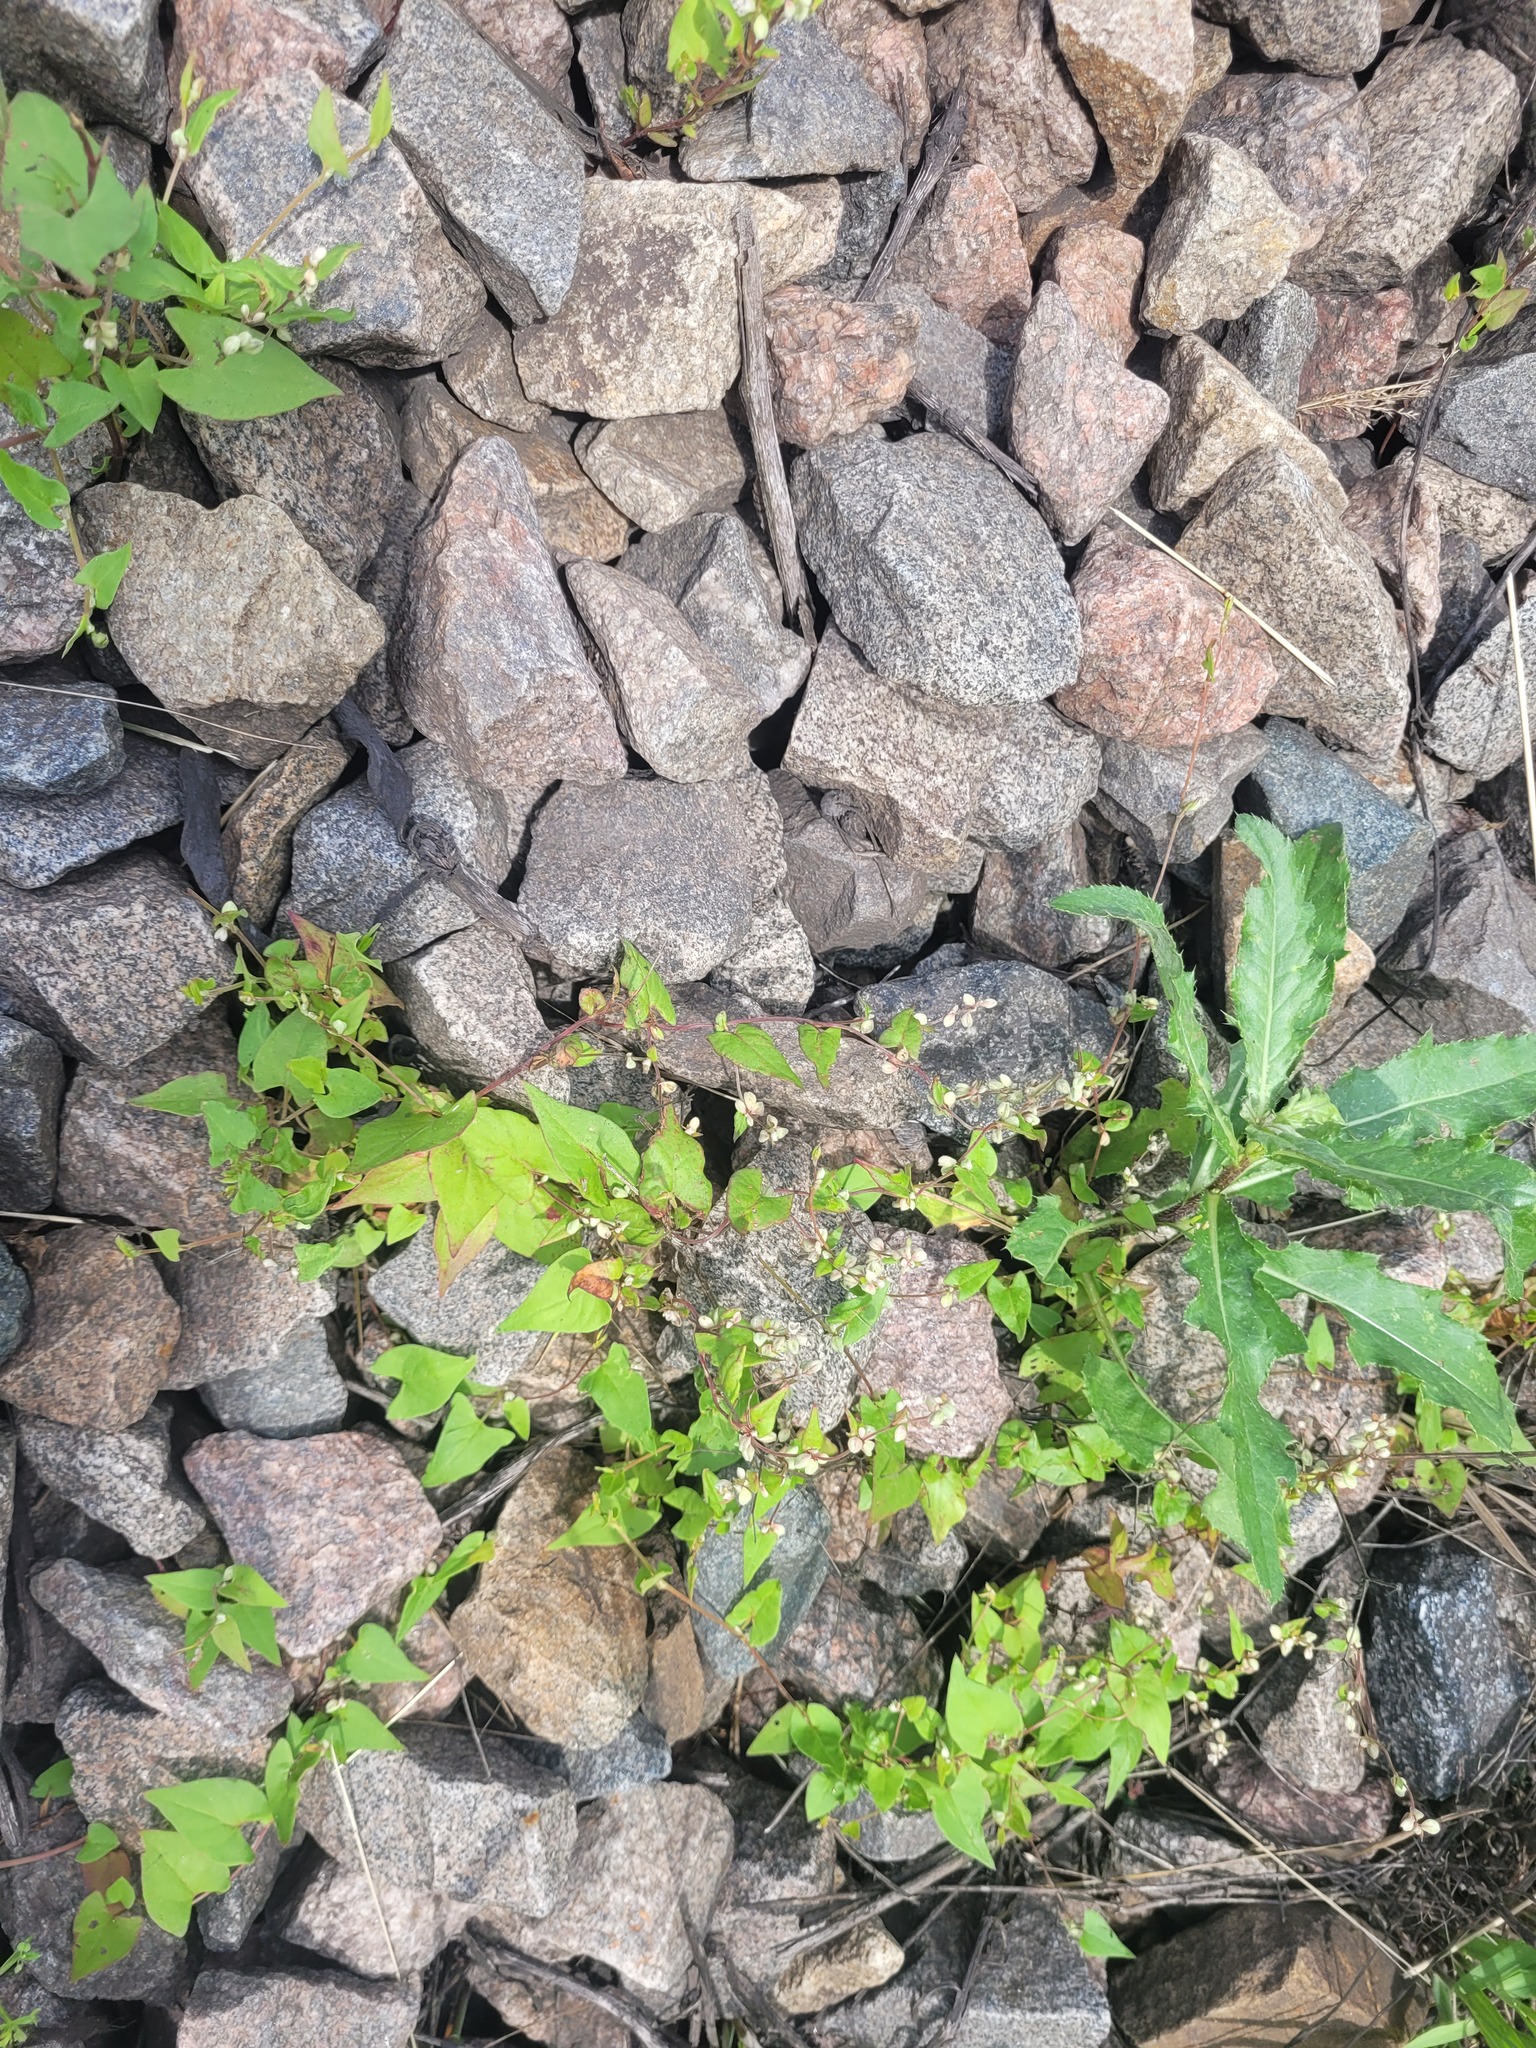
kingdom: Plantae
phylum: Tracheophyta
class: Magnoliopsida
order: Caryophyllales
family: Polygonaceae
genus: Fallopia
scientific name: Fallopia convolvulus
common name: Black bindweed
